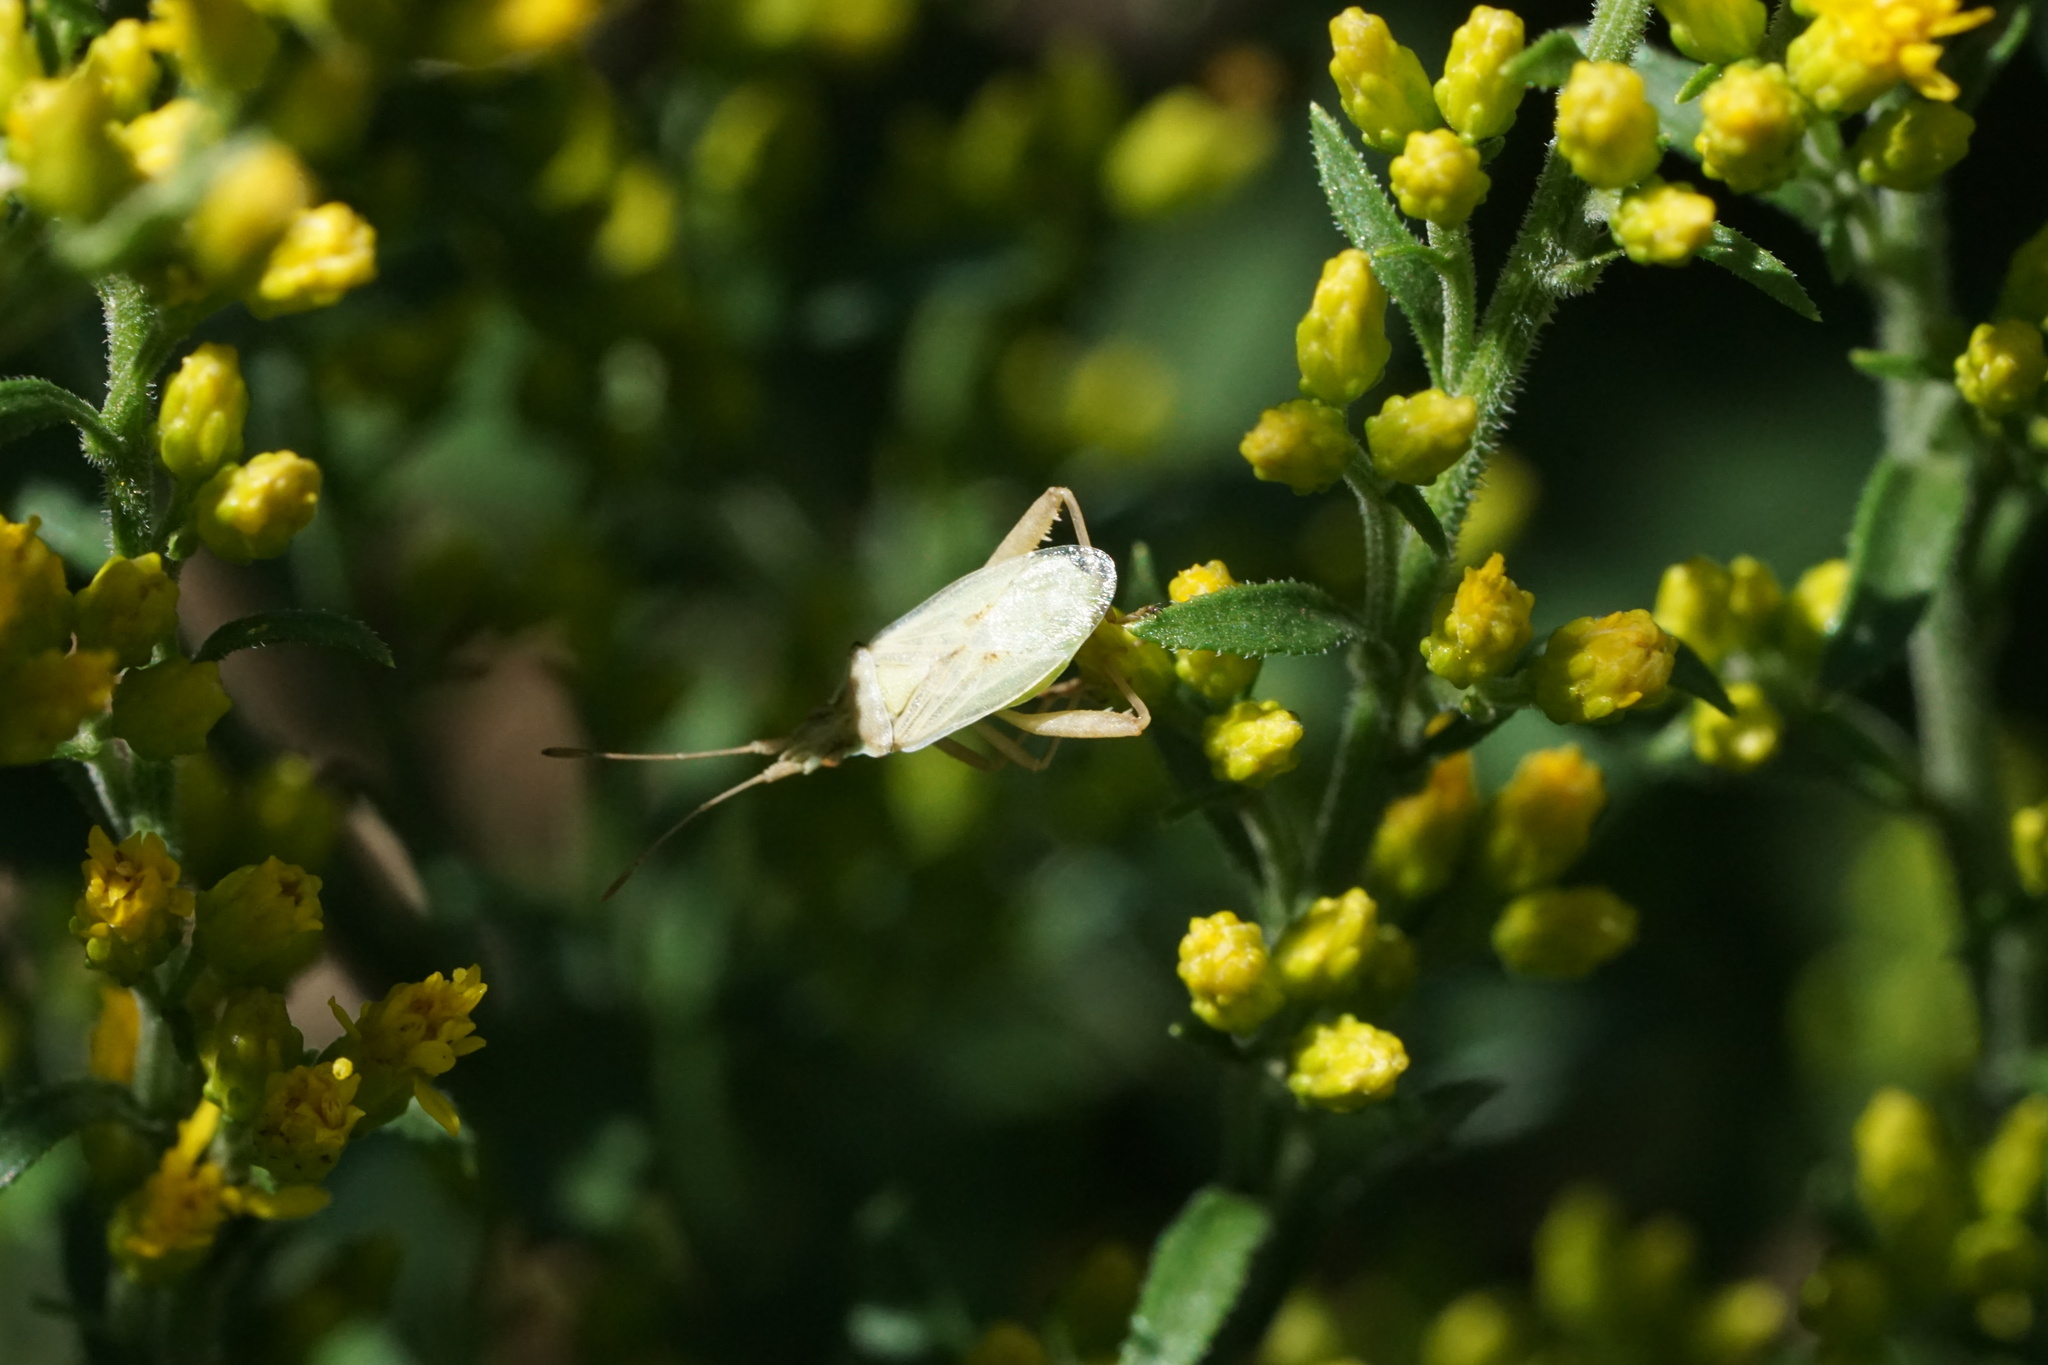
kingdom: Animalia
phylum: Arthropoda
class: Insecta
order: Hemiptera
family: Rhopalidae
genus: Harmostes
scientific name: Harmostes reflexulus
